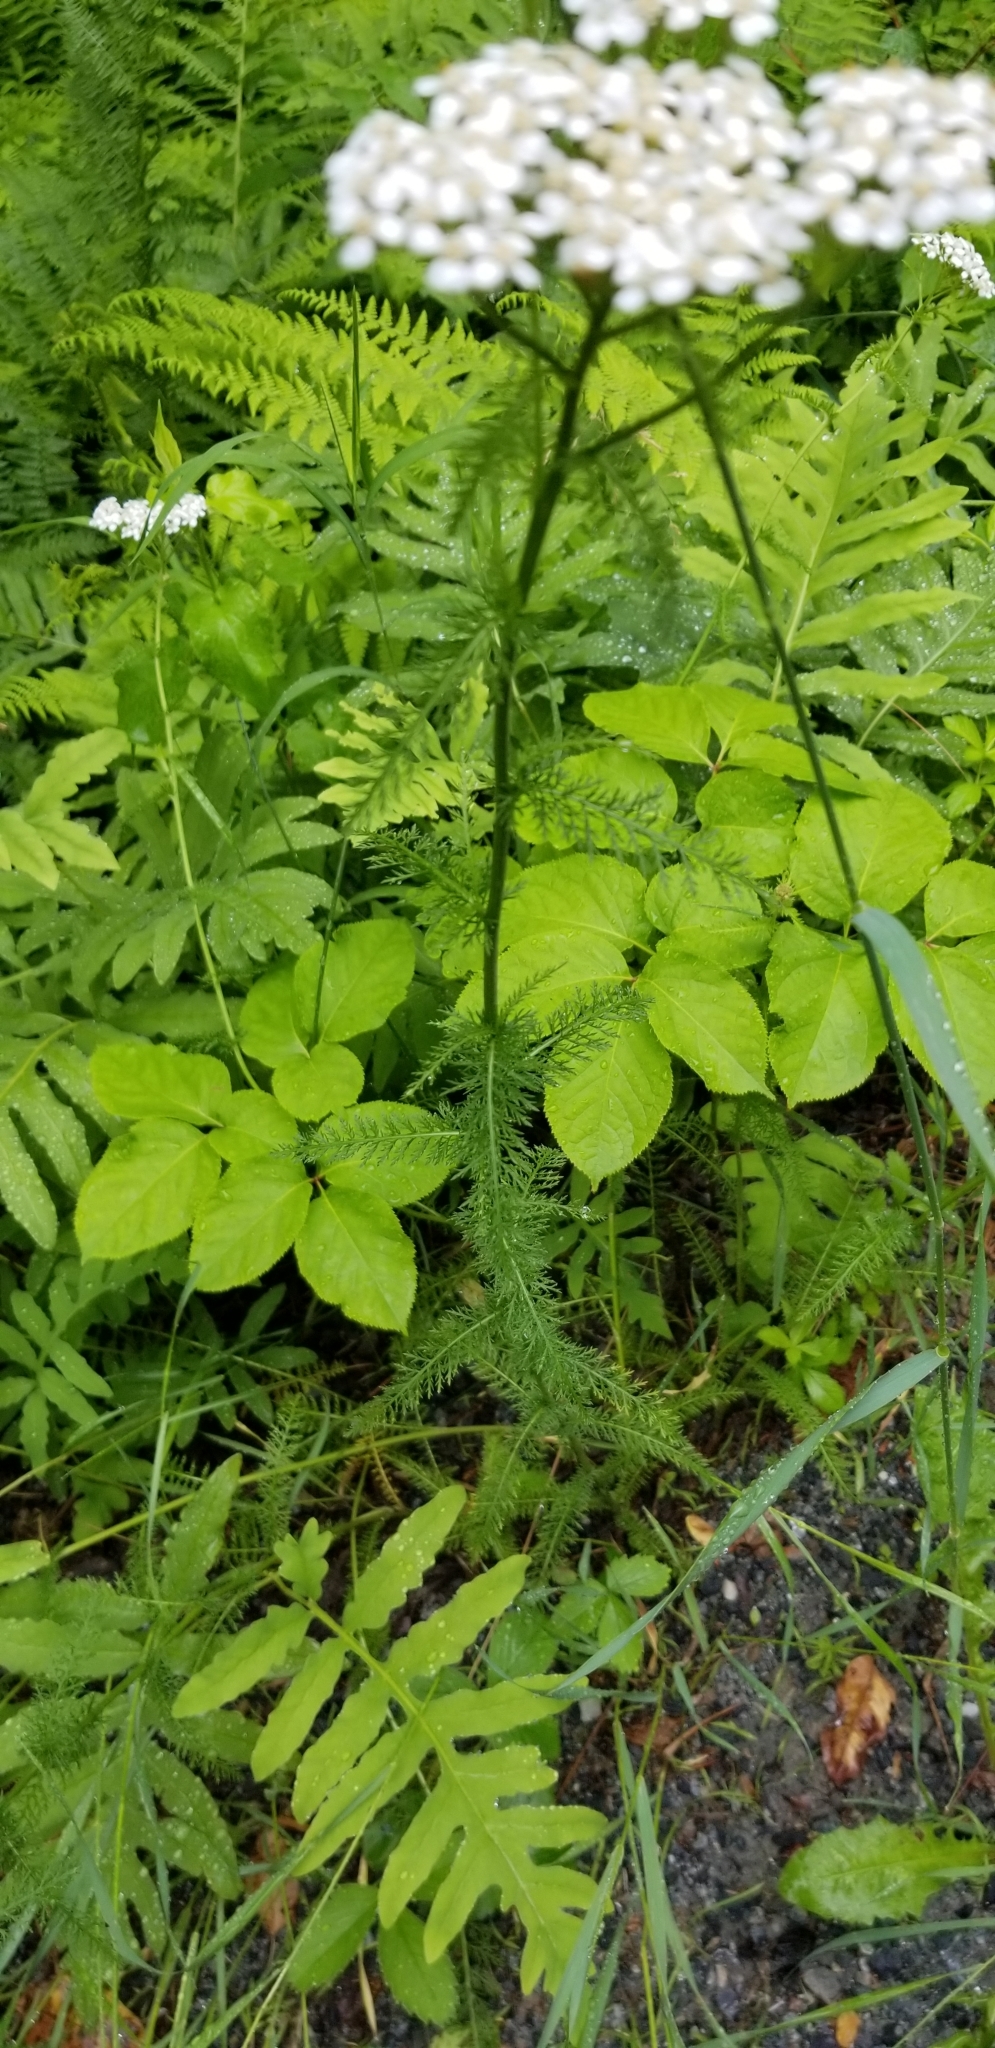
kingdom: Plantae
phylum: Tracheophyta
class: Magnoliopsida
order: Asterales
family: Asteraceae
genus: Achillea
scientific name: Achillea millefolium
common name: Yarrow
